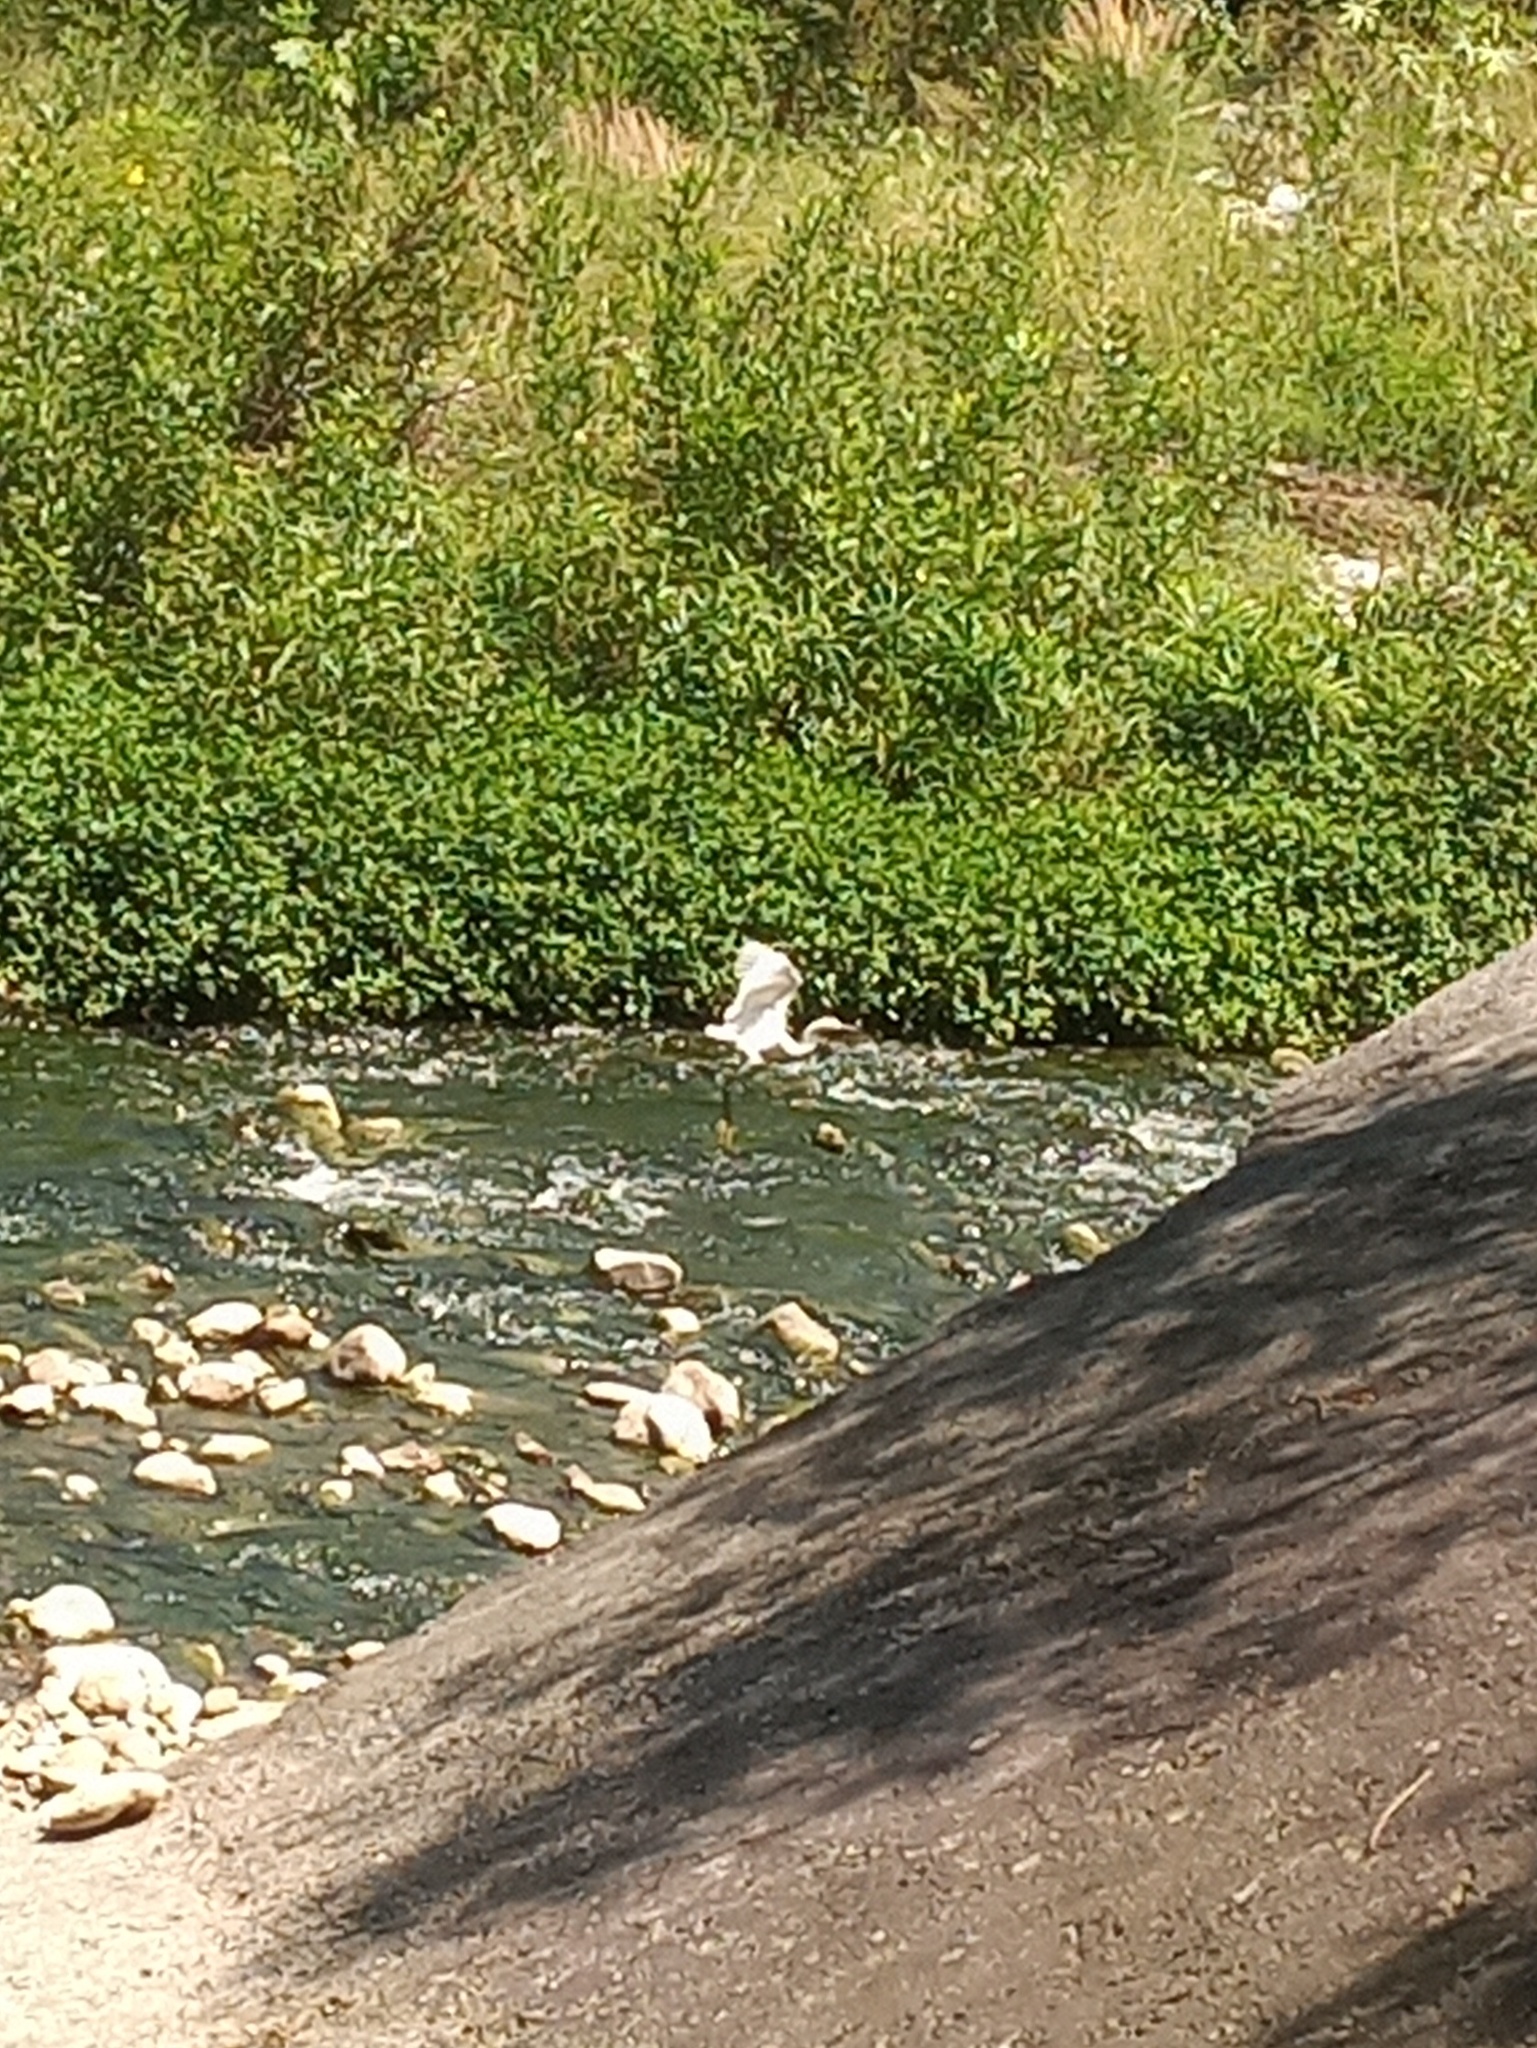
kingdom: Animalia
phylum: Chordata
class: Aves
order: Pelecaniformes
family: Ardeidae
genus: Egretta
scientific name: Egretta thula
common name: Snowy egret
